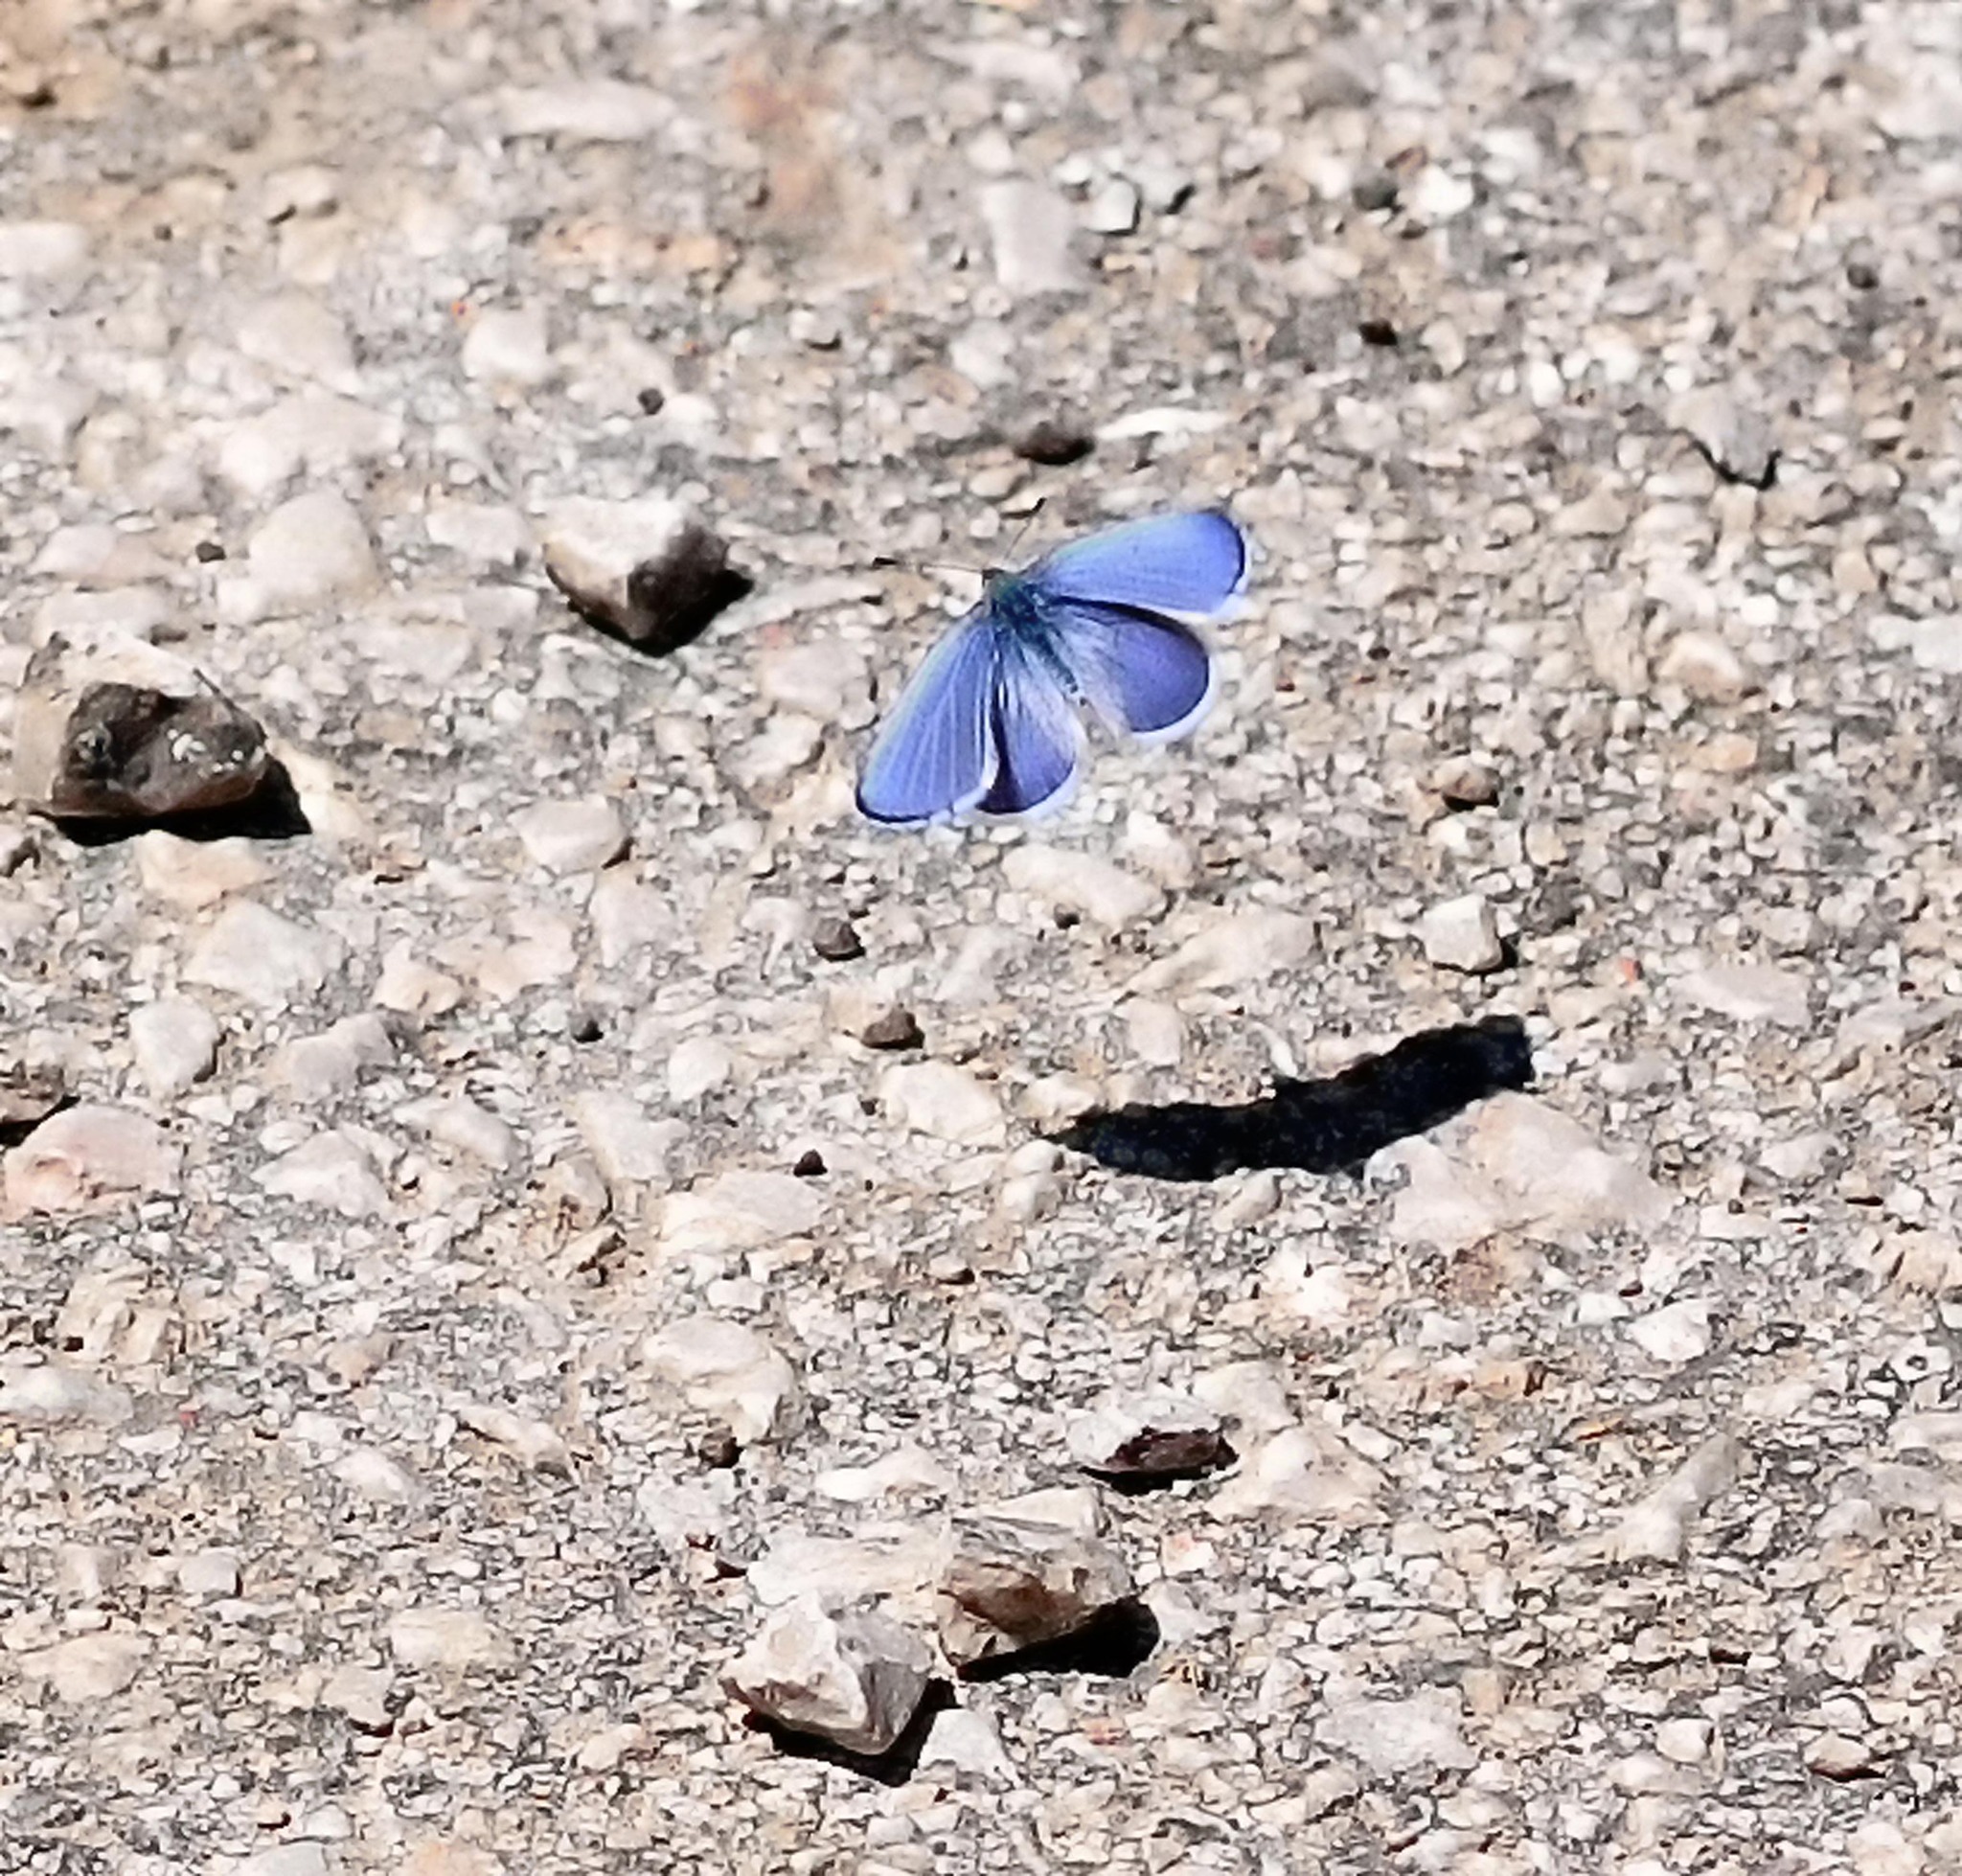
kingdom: Animalia
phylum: Arthropoda
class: Insecta
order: Lepidoptera
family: Lycaenidae
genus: Celastrina
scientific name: Celastrina argiolus
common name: Holly blue
